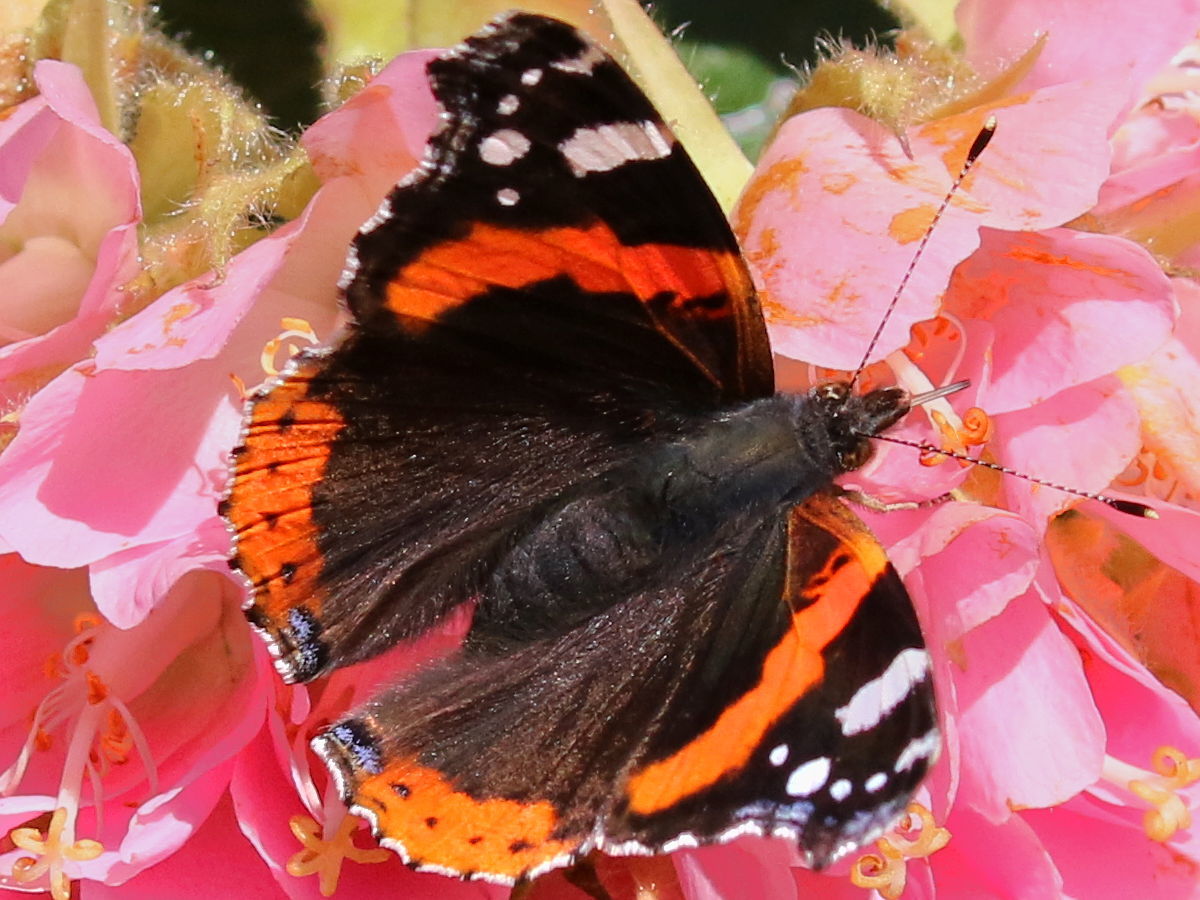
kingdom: Animalia
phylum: Arthropoda
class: Insecta
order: Lepidoptera
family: Nymphalidae
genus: Vanessa
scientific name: Vanessa atalanta
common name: Red admiral
